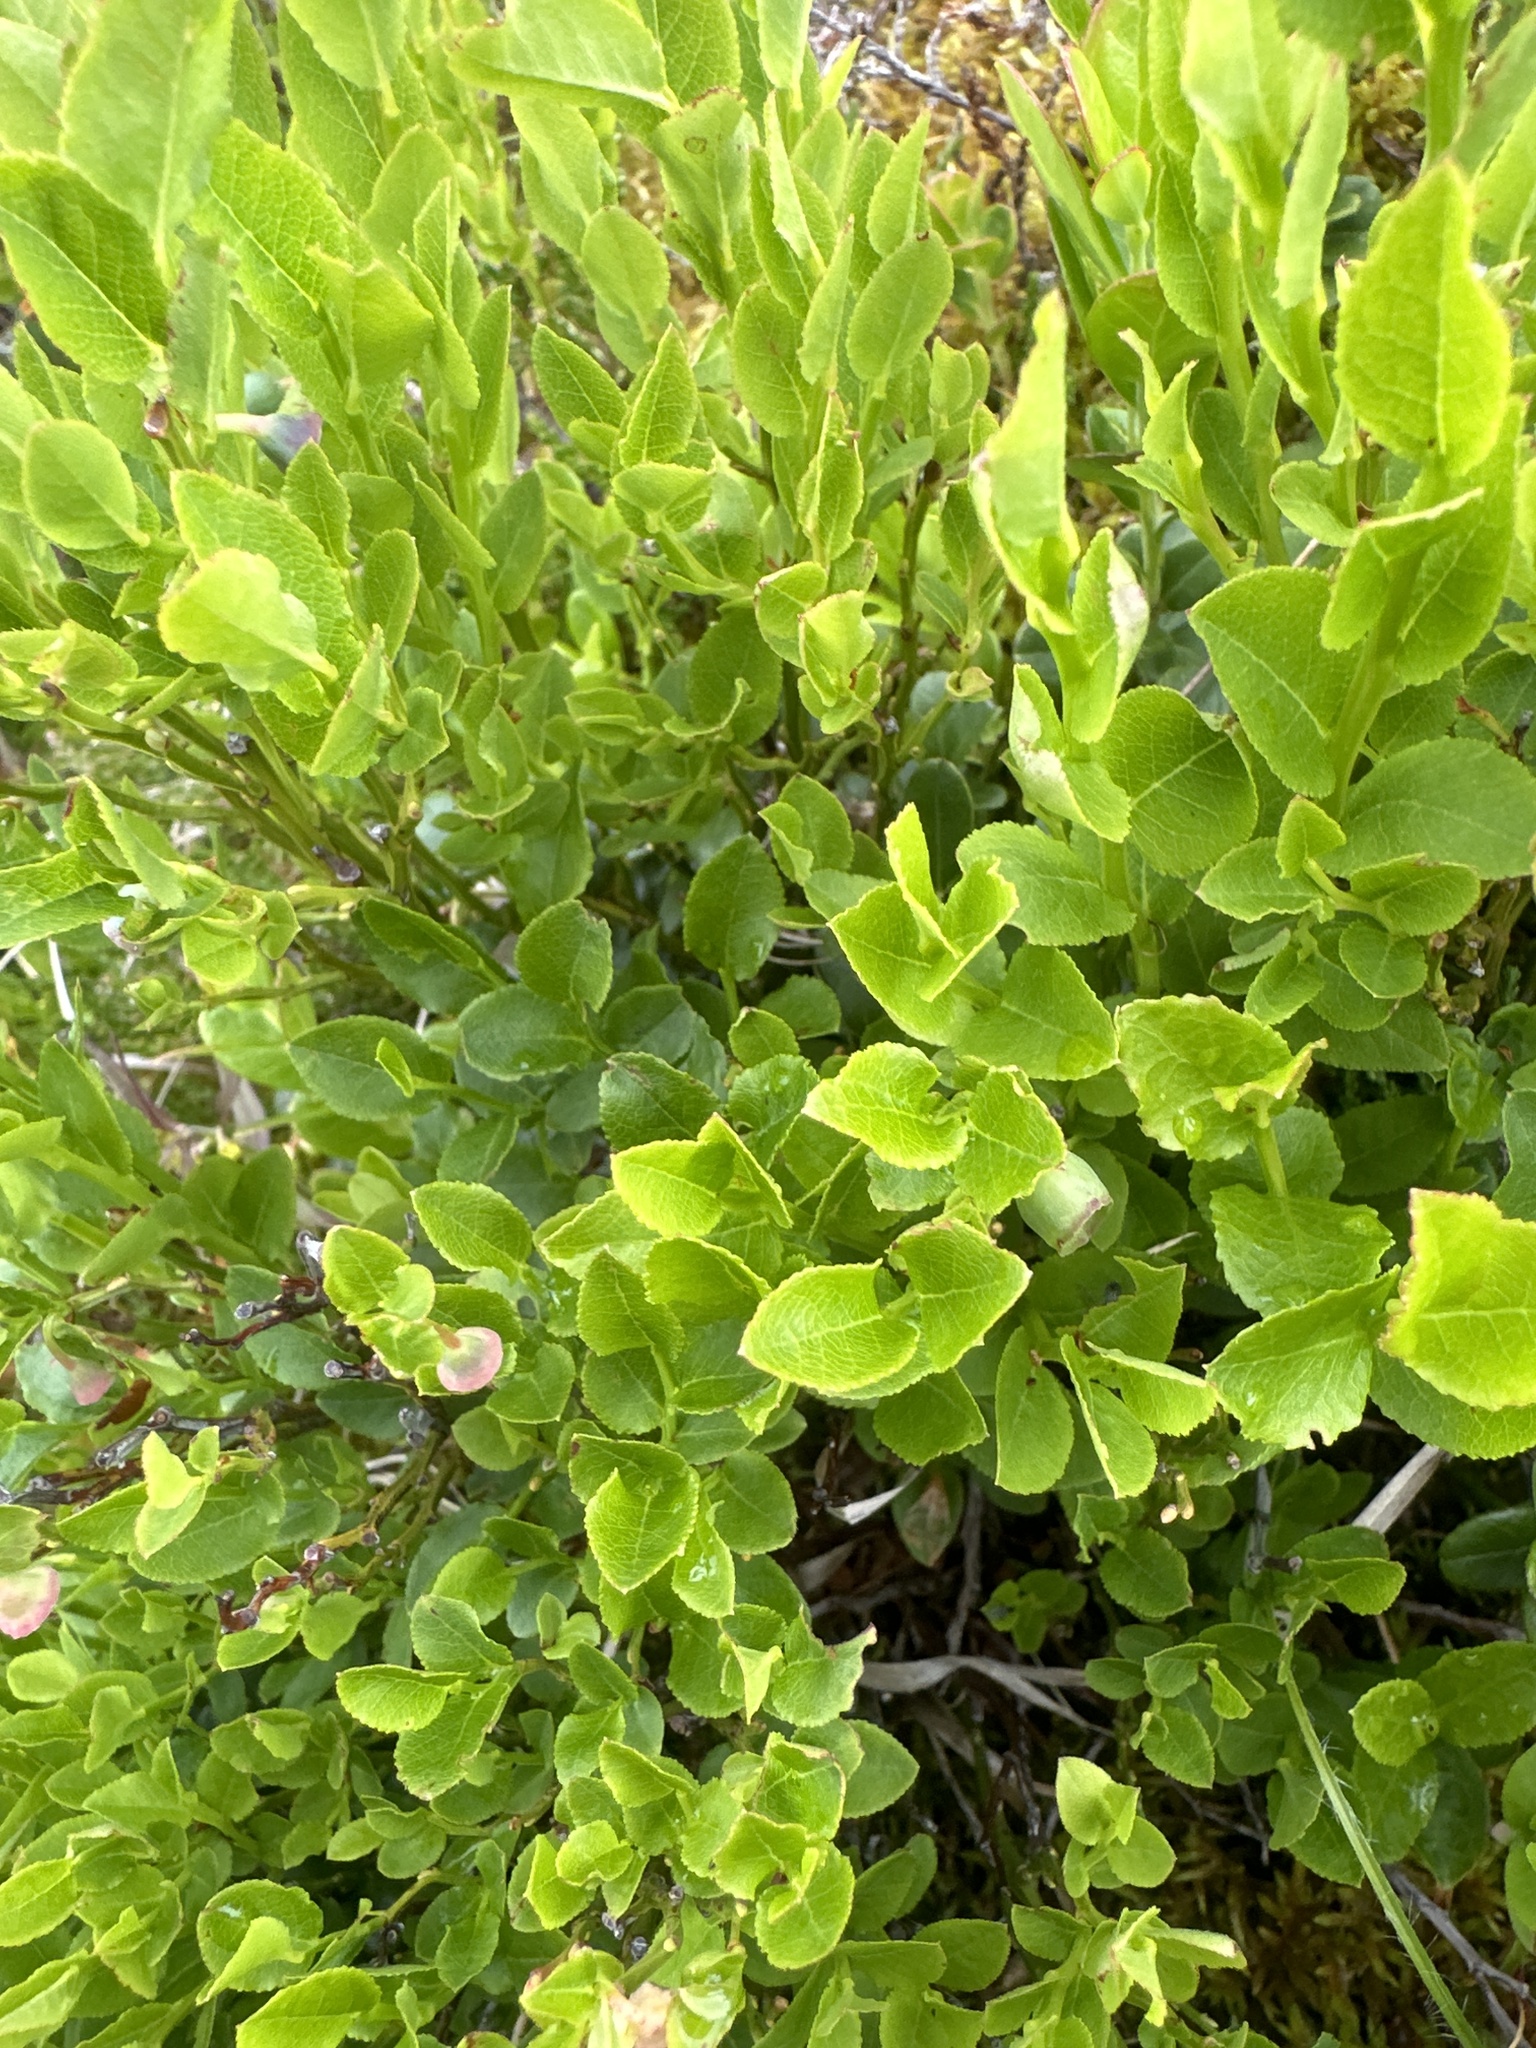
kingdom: Plantae
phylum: Tracheophyta
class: Magnoliopsida
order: Ericales
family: Ericaceae
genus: Vaccinium
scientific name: Vaccinium myrtillus
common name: Bilberry
